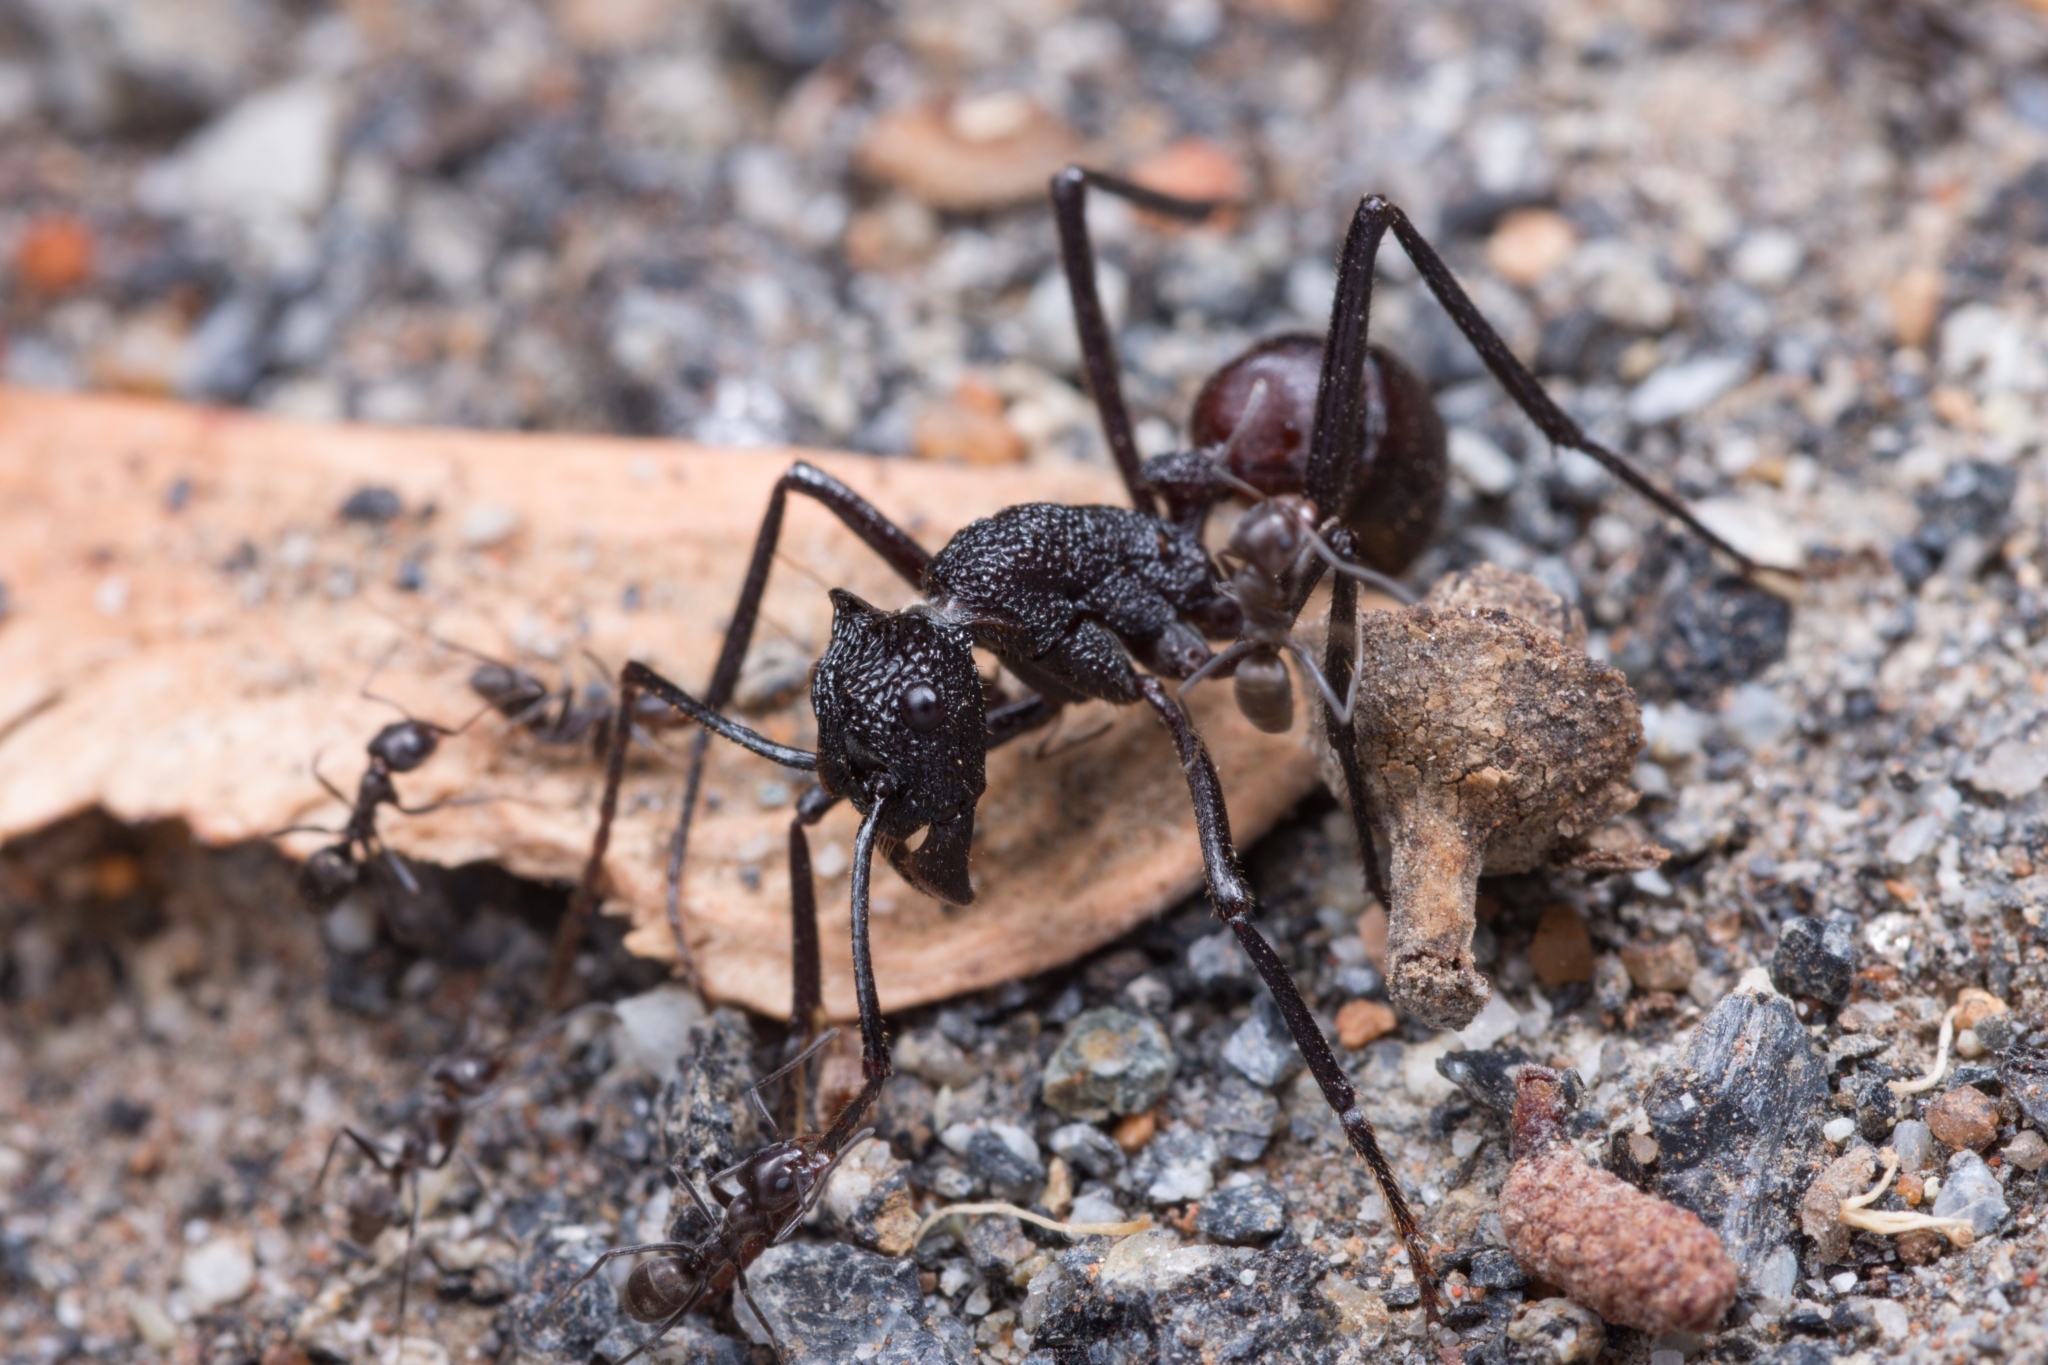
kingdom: Animalia
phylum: Arthropoda
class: Insecta
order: Hymenoptera
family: Formicidae
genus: Rhytidoponera
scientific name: Rhytidoponera taurus
